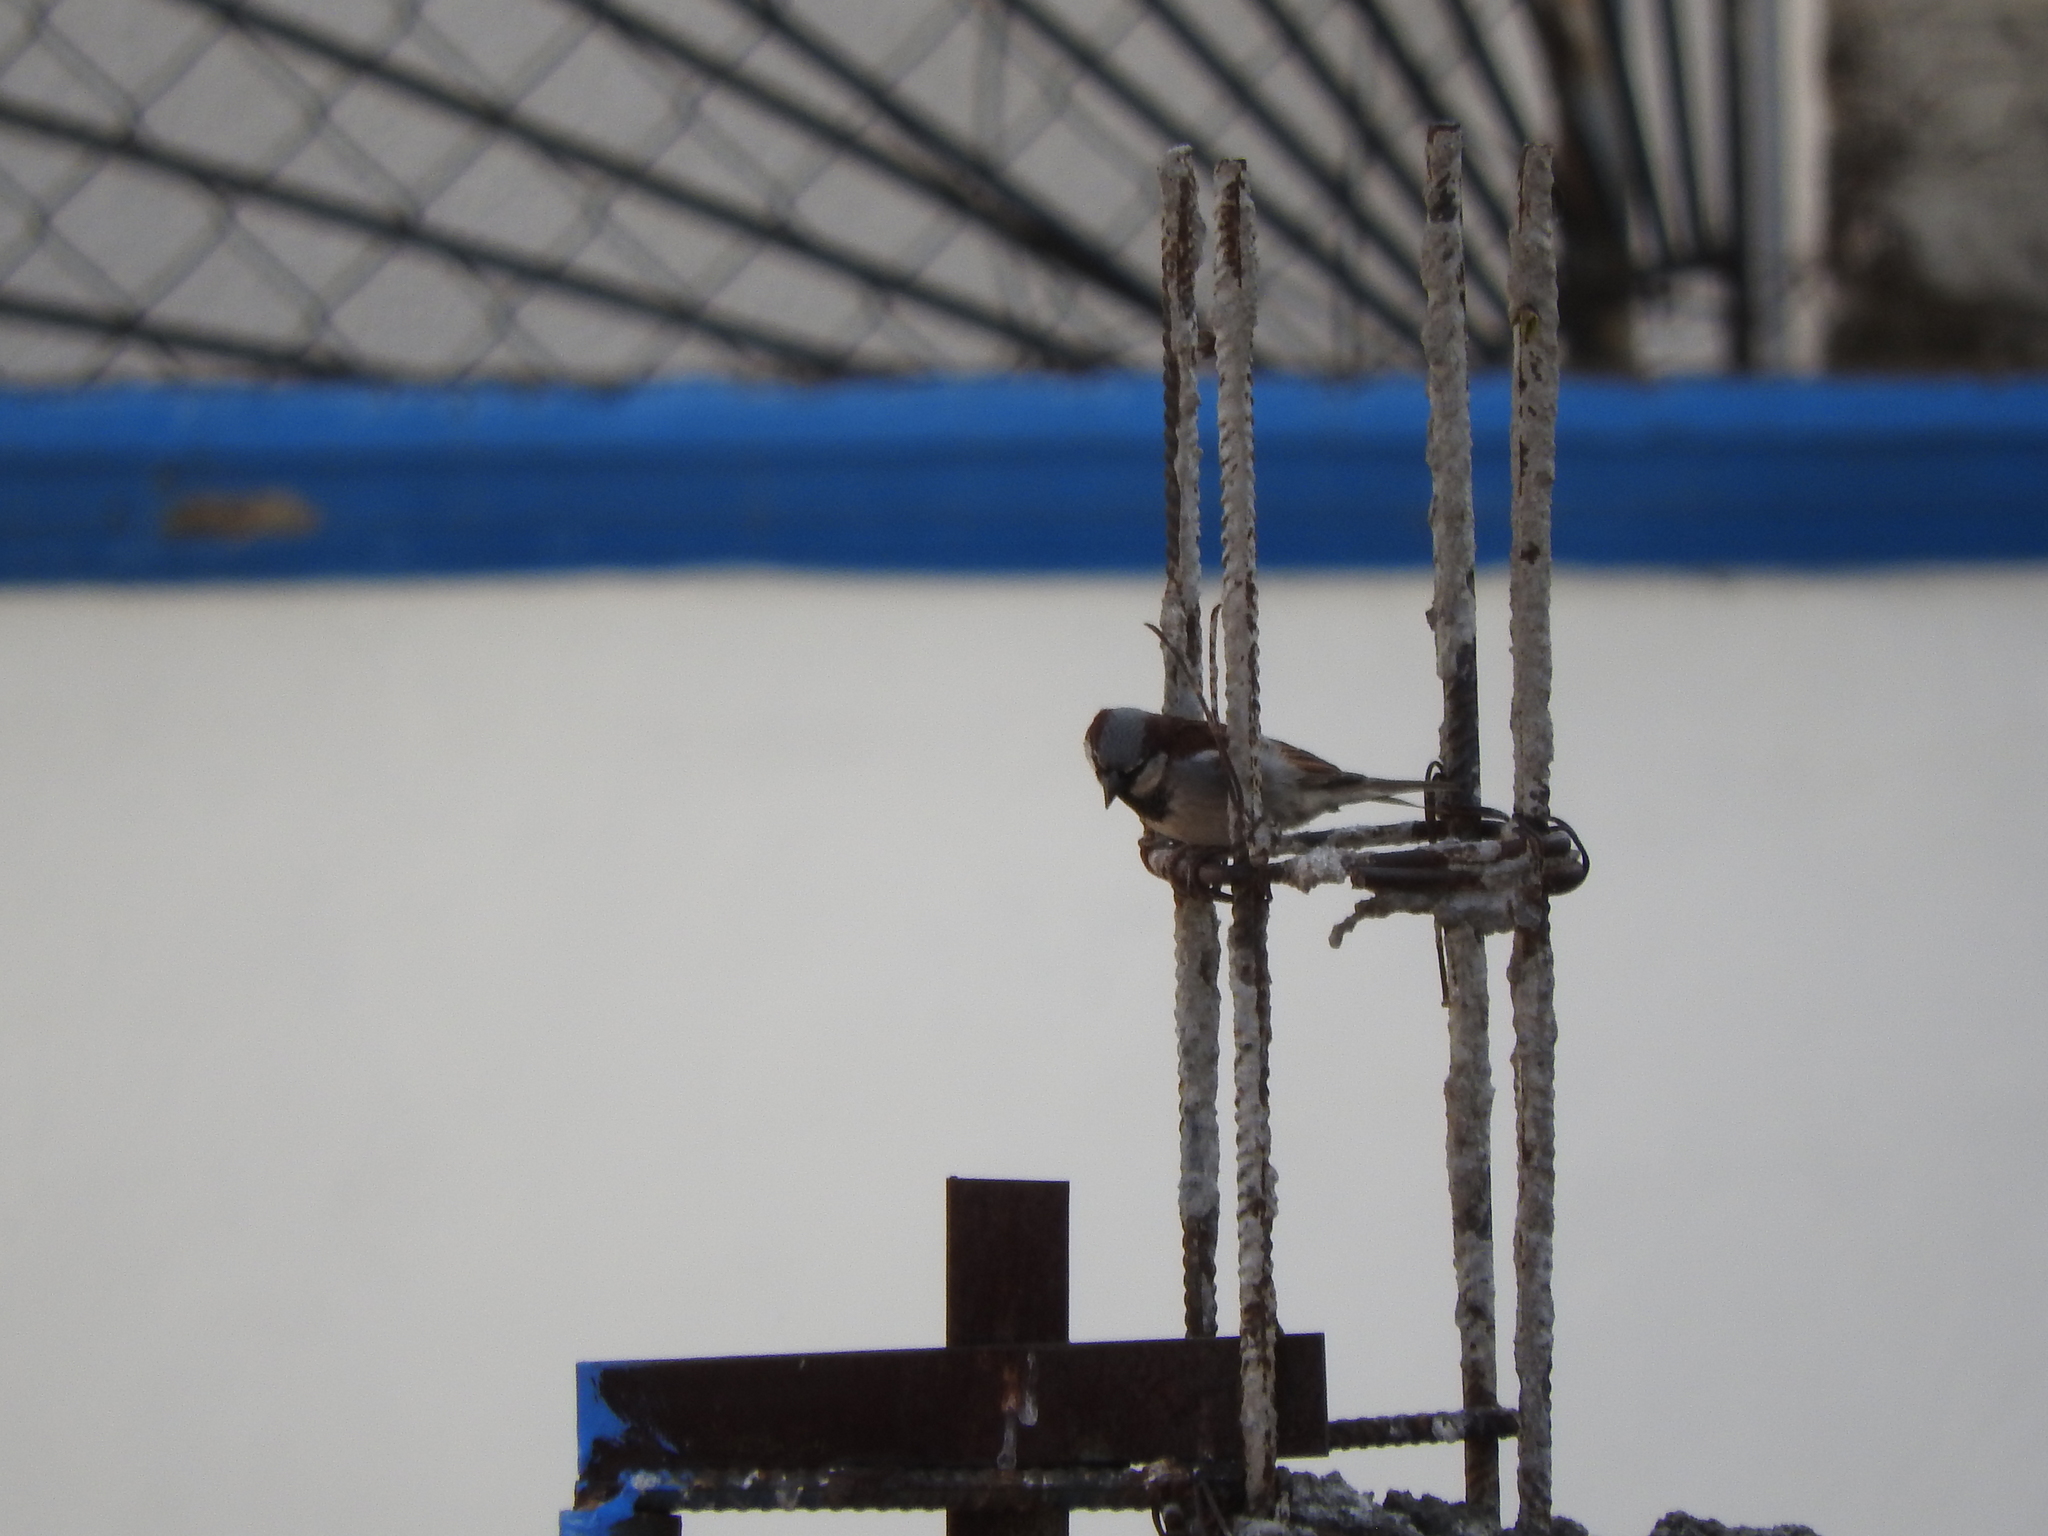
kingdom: Animalia
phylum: Chordata
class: Aves
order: Passeriformes
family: Passeridae
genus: Passer
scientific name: Passer domesticus
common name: House sparrow
